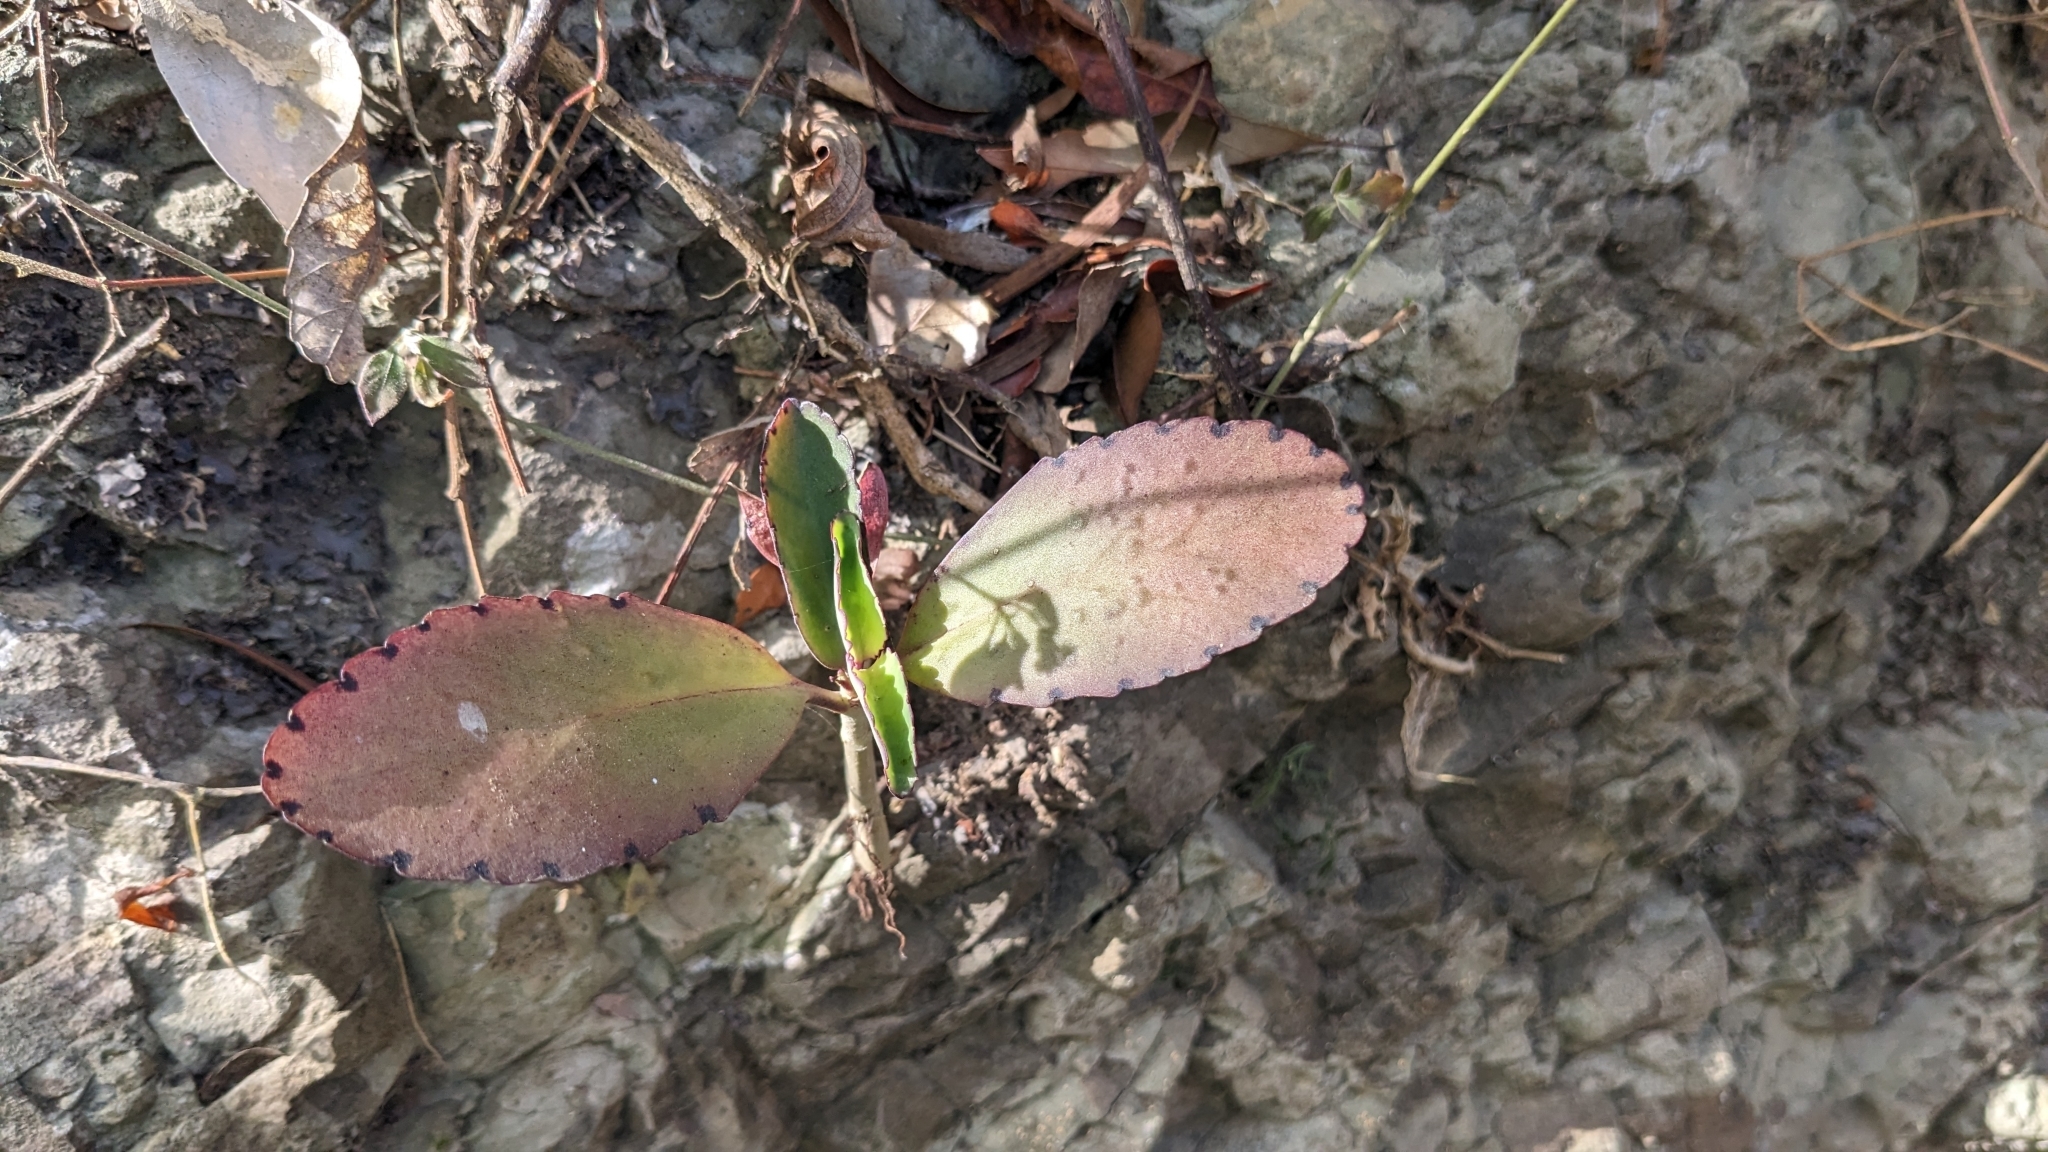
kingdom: Plantae
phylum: Tracheophyta
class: Magnoliopsida
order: Saxifragales
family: Crassulaceae
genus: Kalanchoe
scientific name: Kalanchoe pinnata
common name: Cathedral bells
